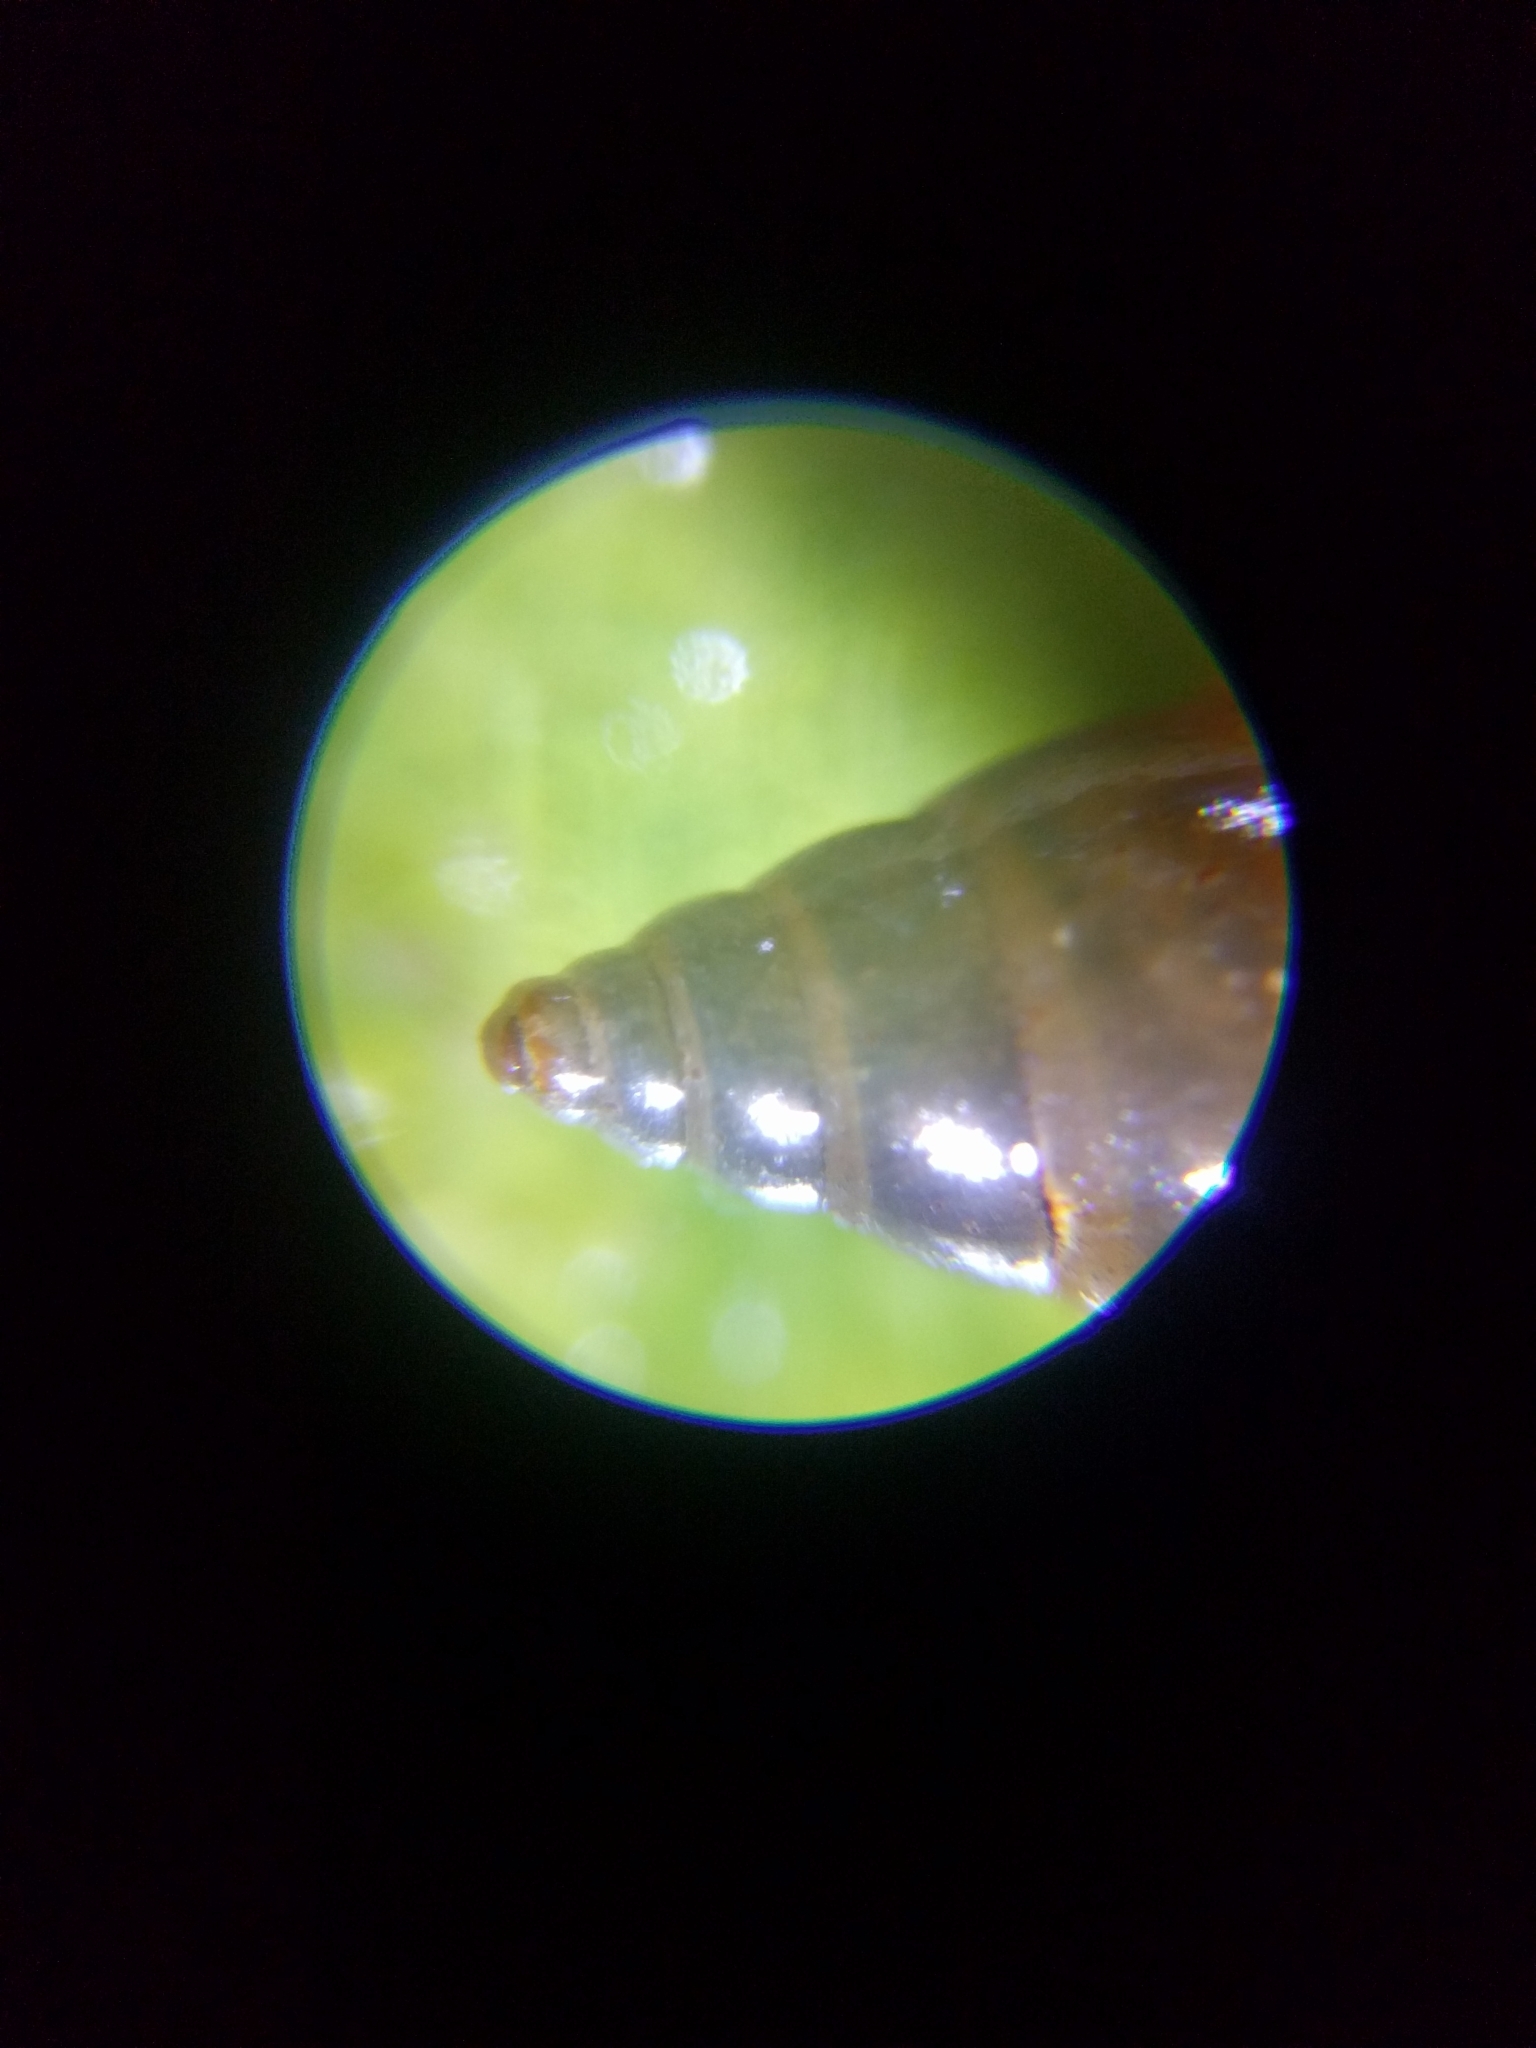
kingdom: Animalia
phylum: Mollusca
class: Gastropoda
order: Littorinimorpha
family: Tateidae
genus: Potamopyrgus
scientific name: Potamopyrgus antipodarum
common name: Jenkins' spire snail
